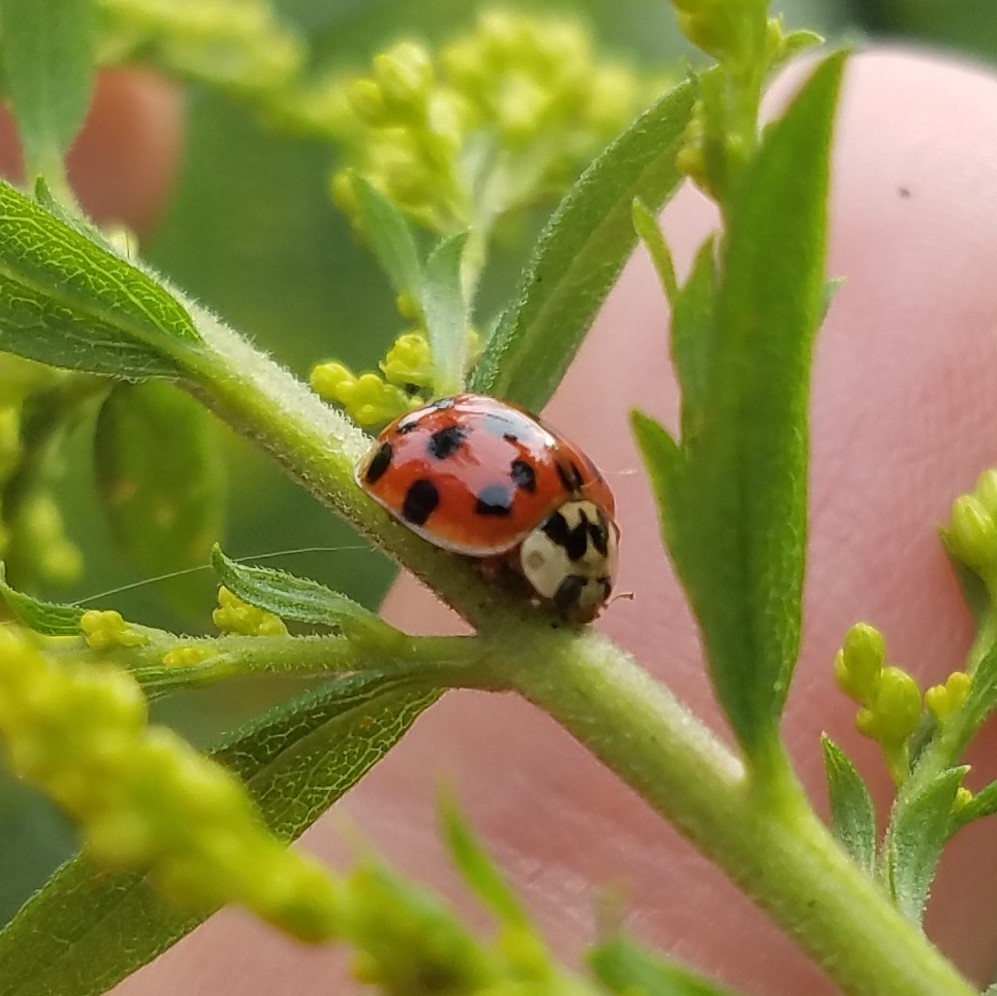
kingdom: Animalia
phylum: Arthropoda
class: Insecta
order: Coleoptera
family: Coccinellidae
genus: Harmonia
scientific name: Harmonia axyridis
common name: Harlequin ladybird
